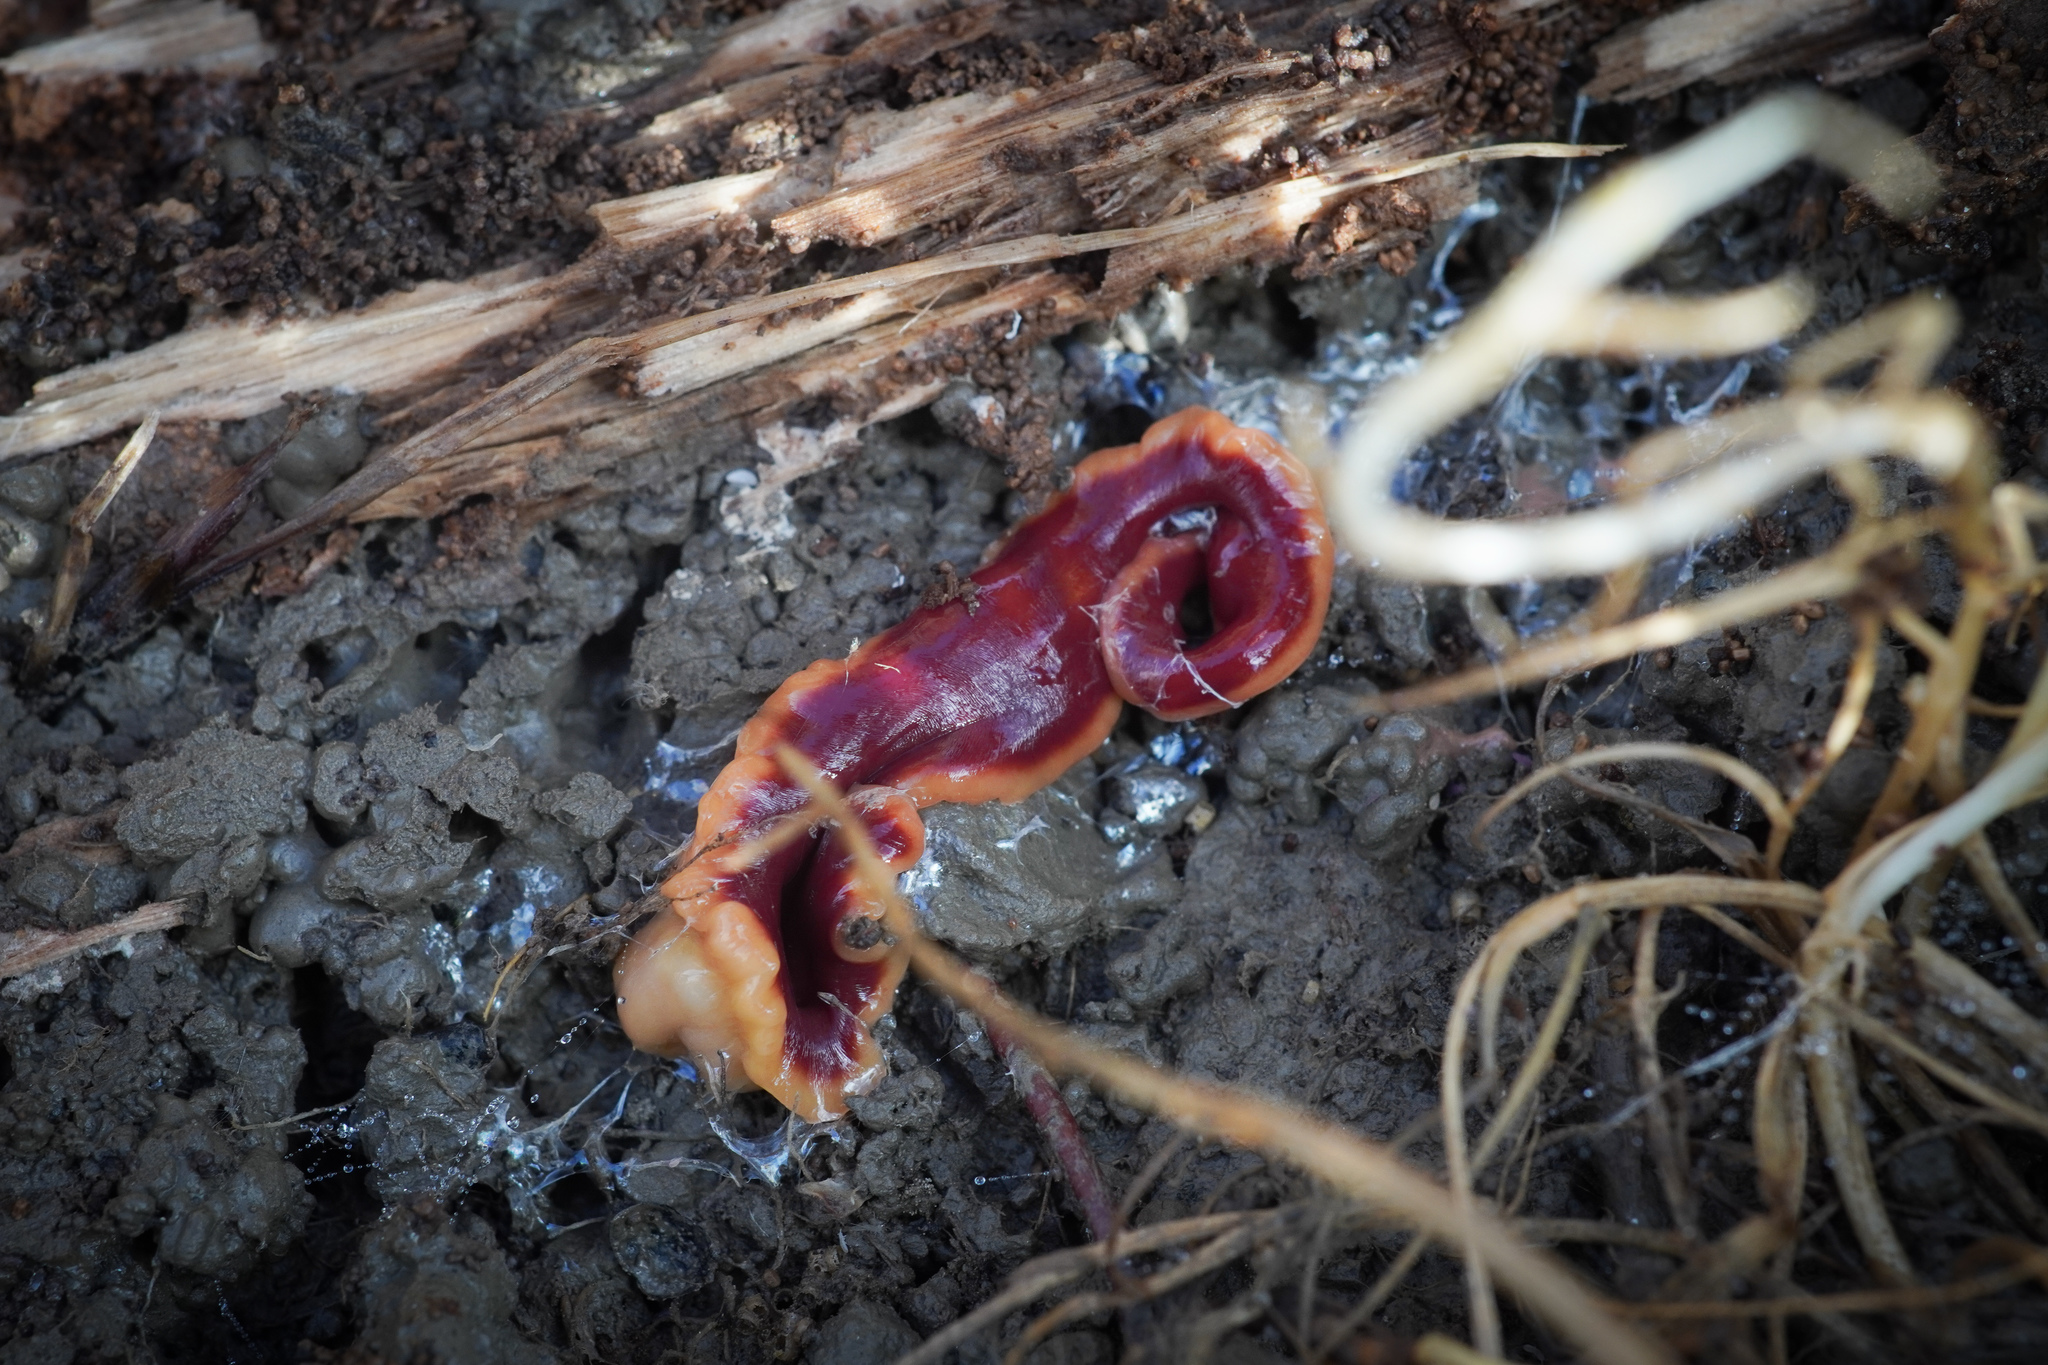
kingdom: Animalia
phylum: Platyhelminthes
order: Tricladida
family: Geoplanidae
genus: Arthurdendyus
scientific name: Arthurdendyus testaceus
